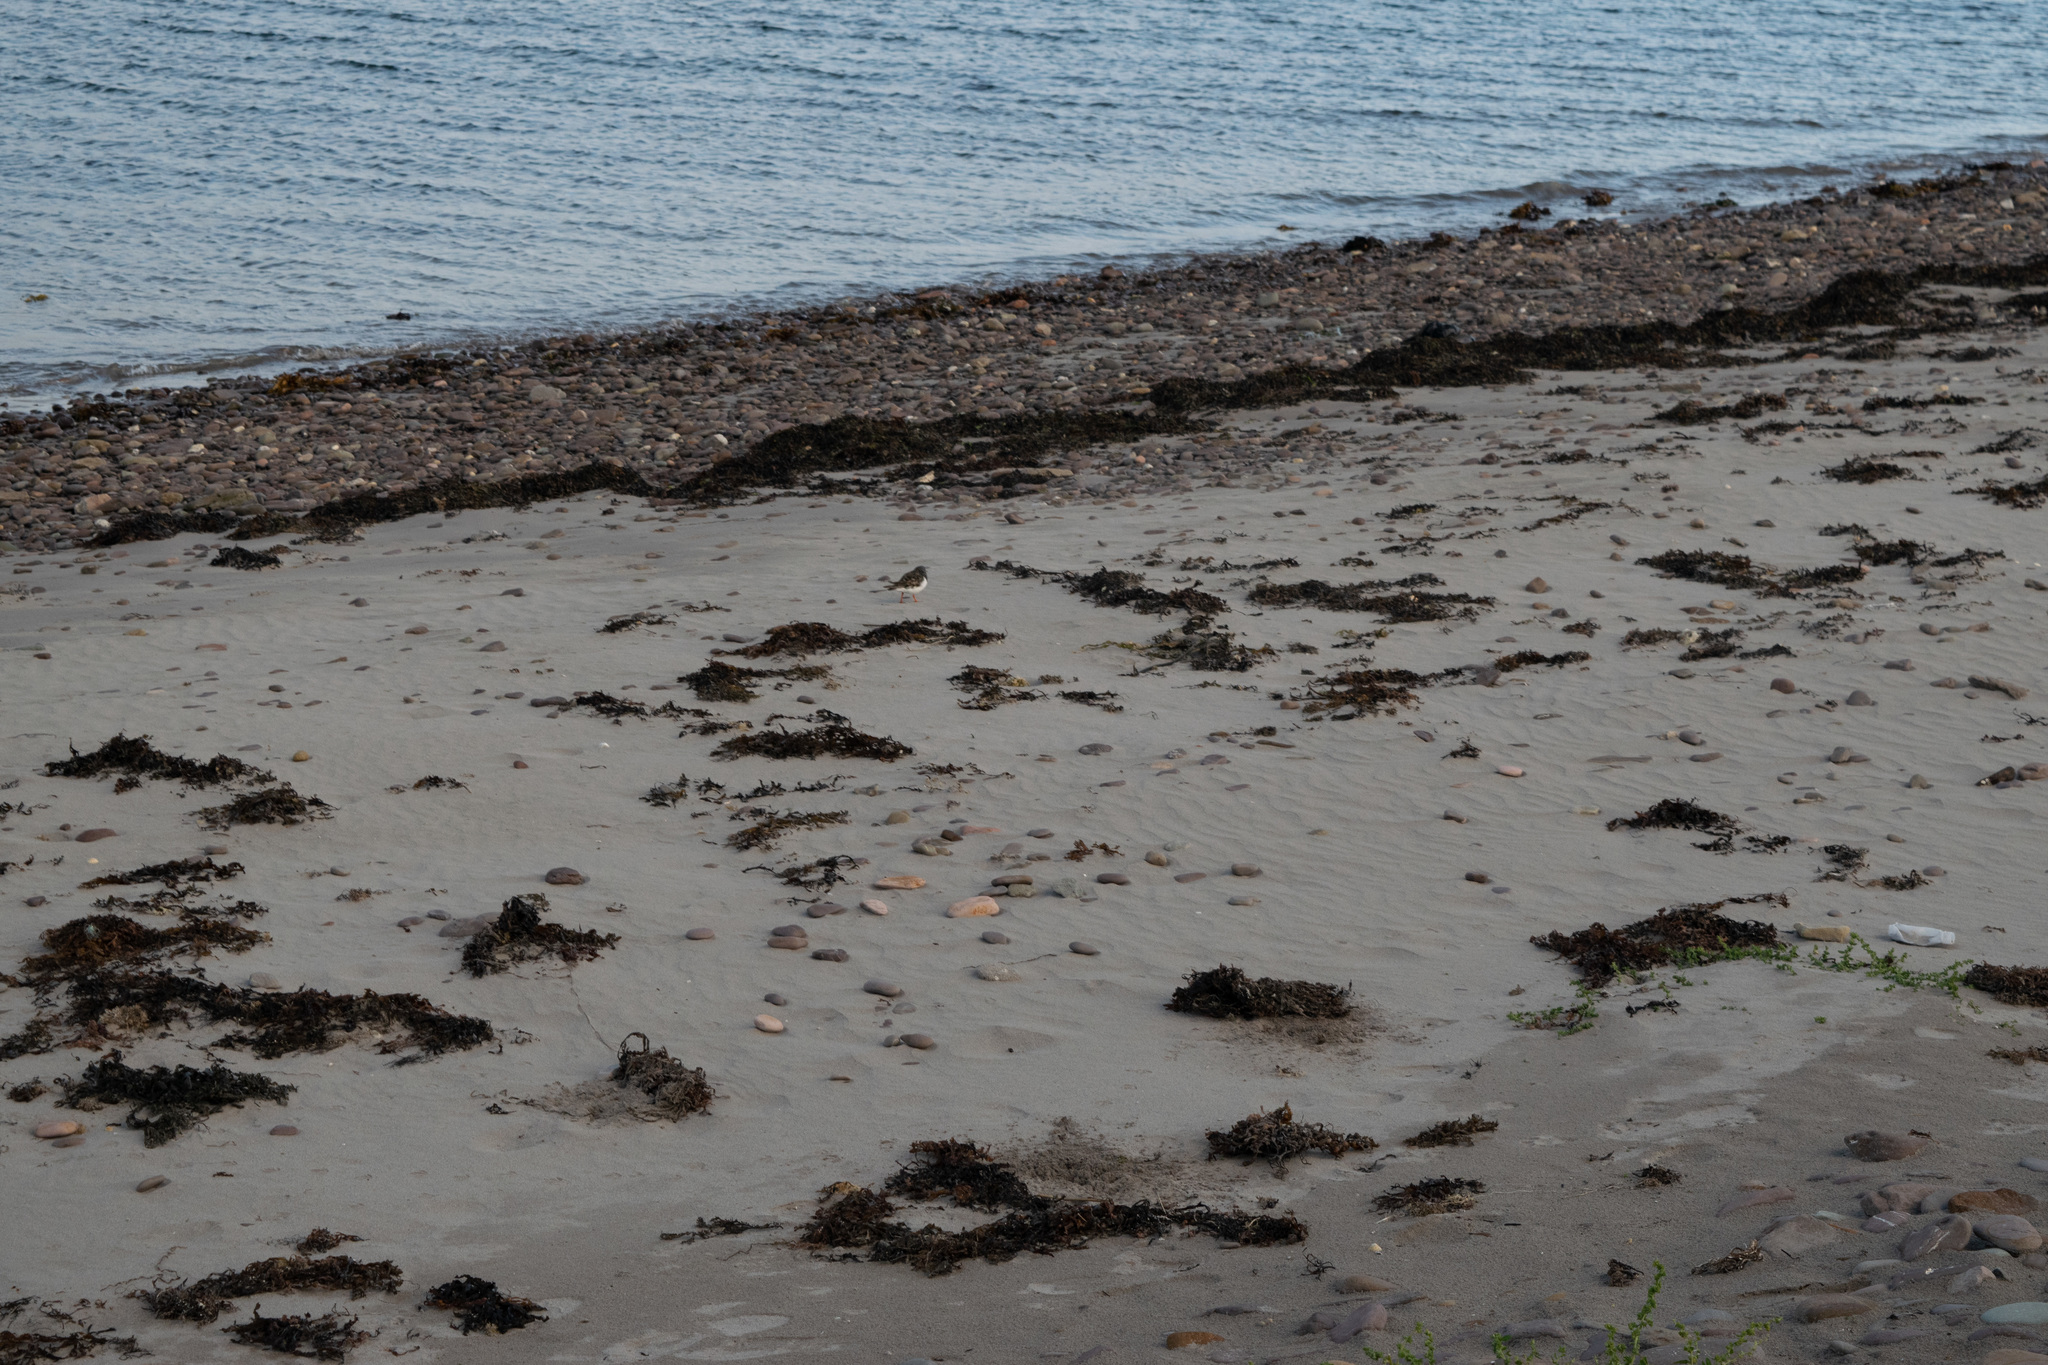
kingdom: Animalia
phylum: Chordata
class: Aves
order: Charadriiformes
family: Scolopacidae
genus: Arenaria
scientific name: Arenaria interpres
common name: Ruddy turnstone
